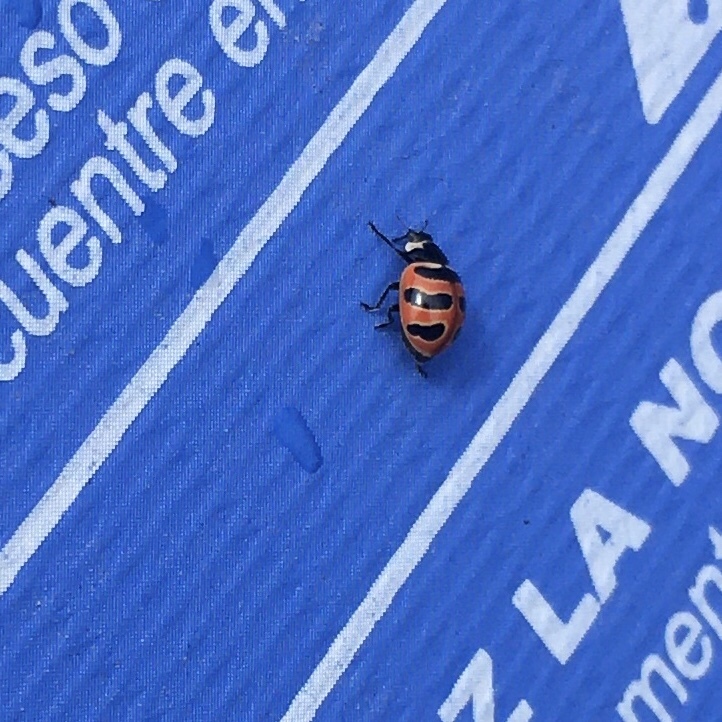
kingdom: Animalia
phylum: Arthropoda
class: Insecta
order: Coleoptera
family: Coccinellidae
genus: Coccinella
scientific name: Coccinella trifasciata
